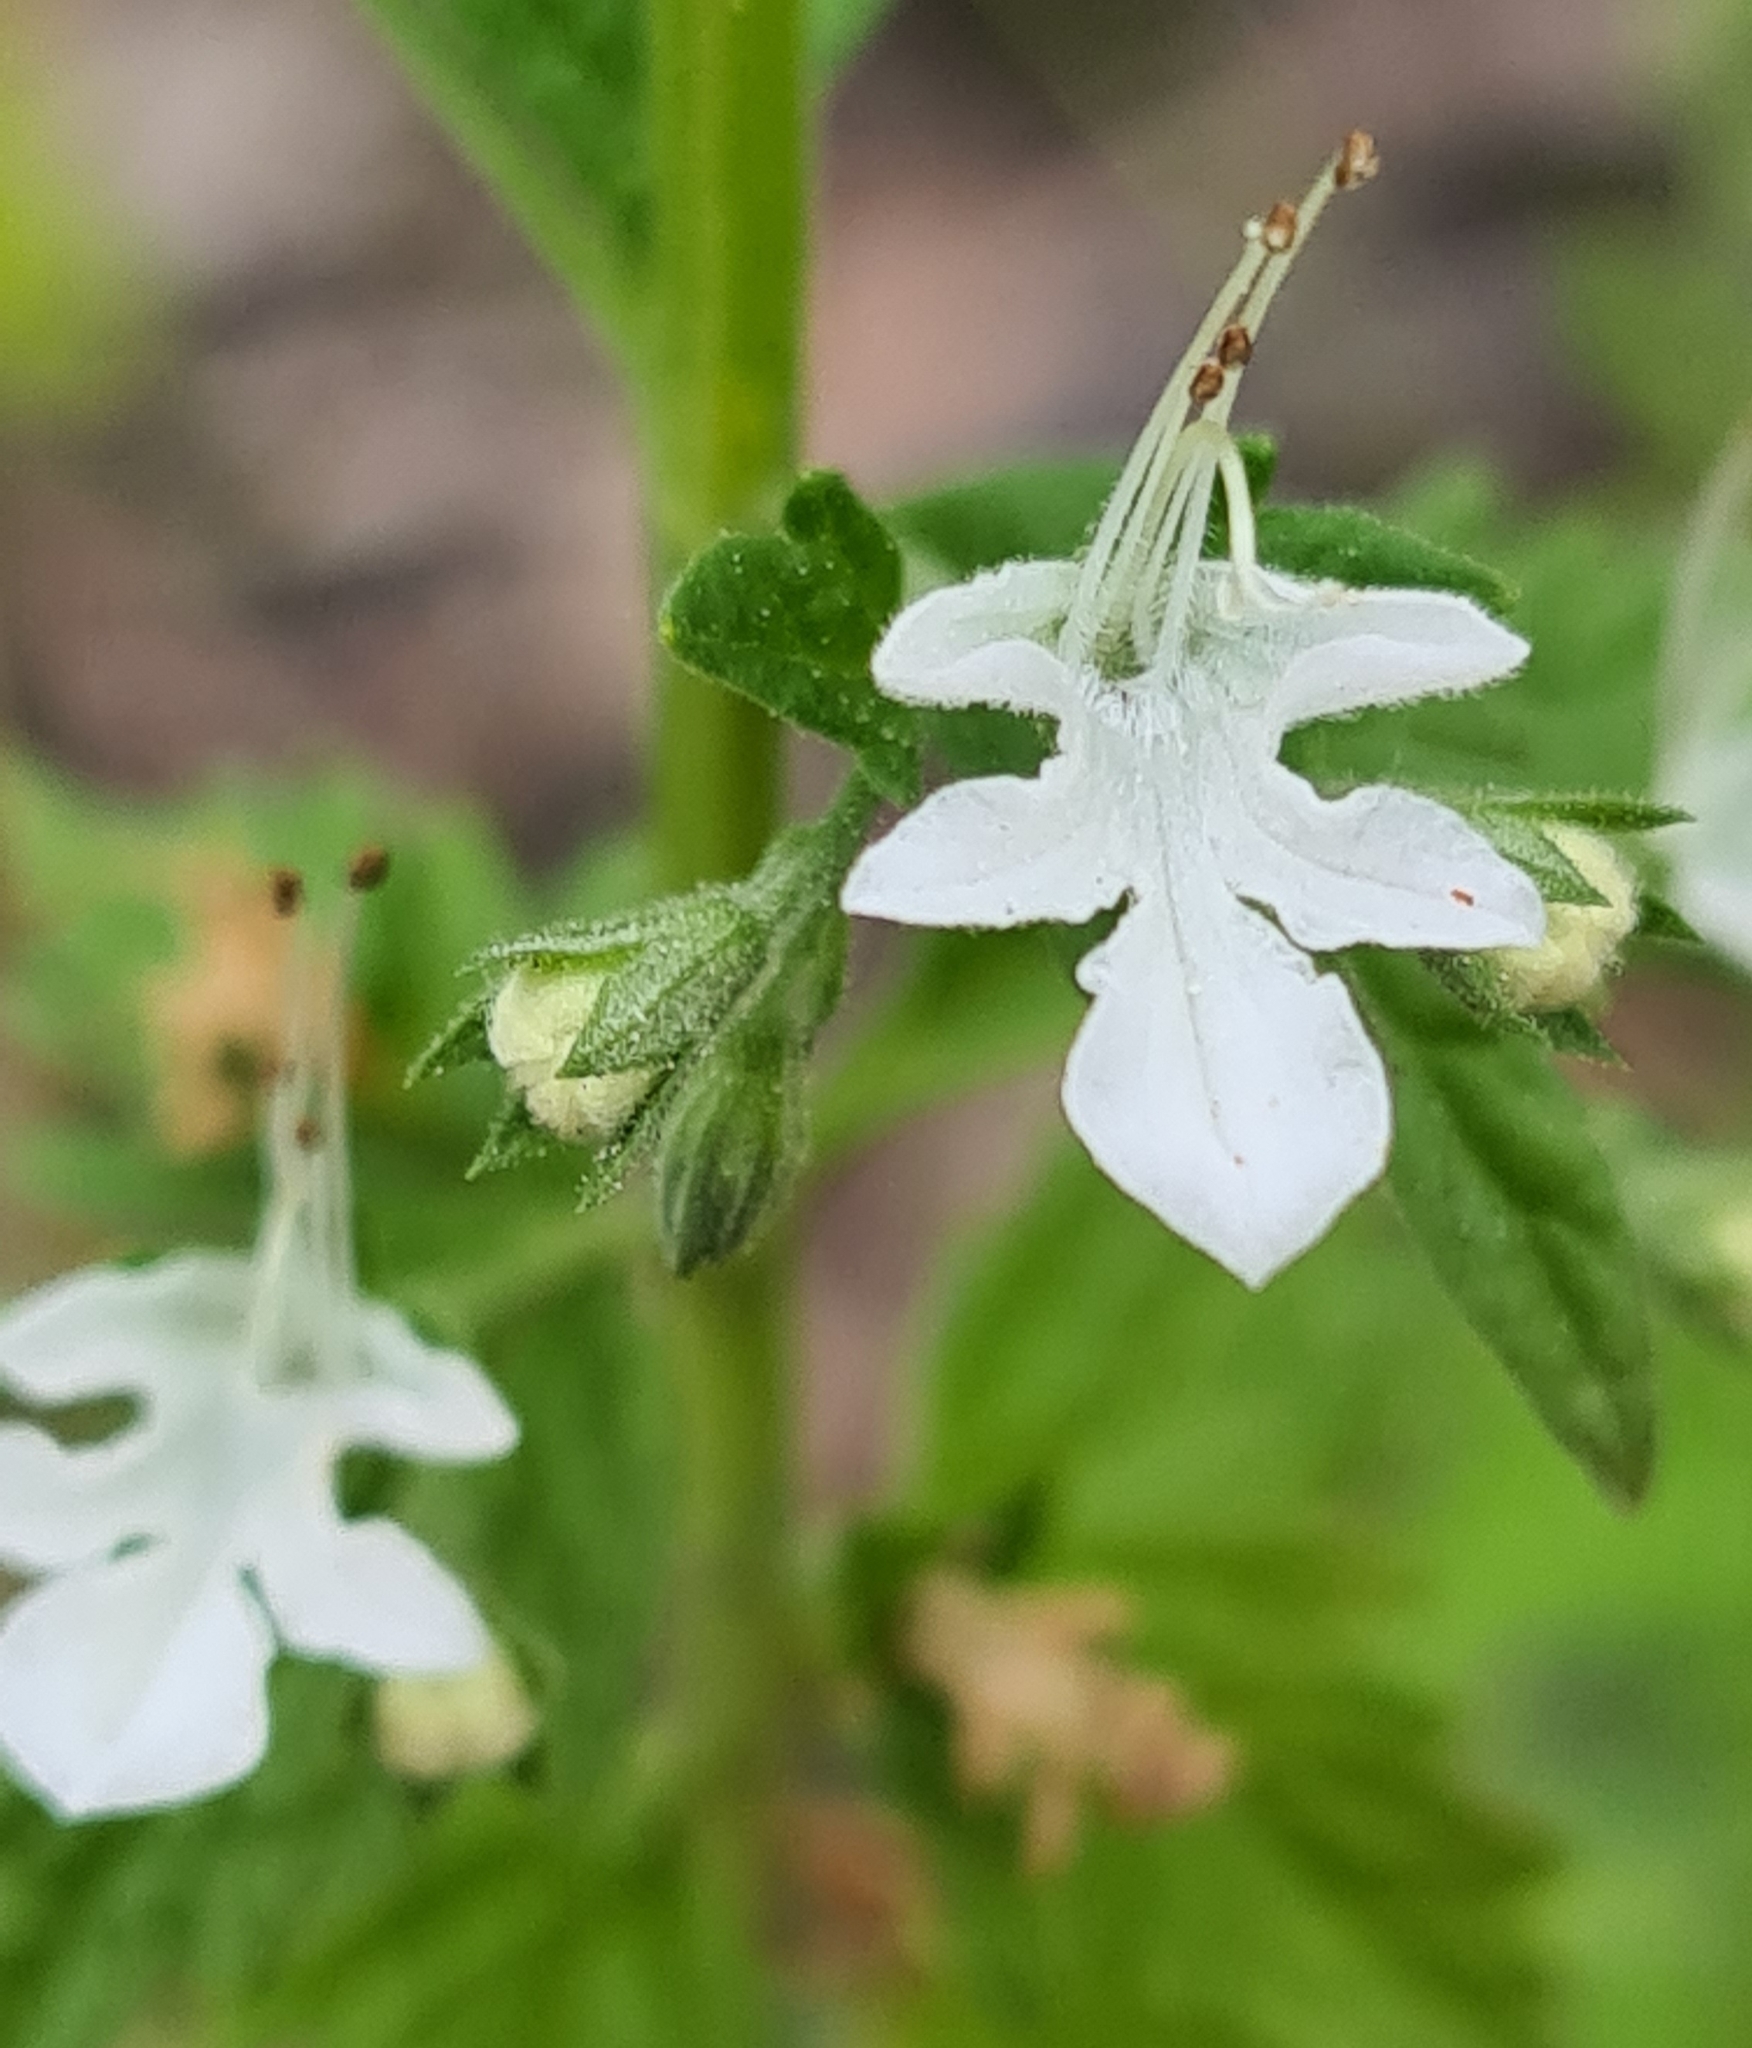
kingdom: Plantae
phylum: Tracheophyta
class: Magnoliopsida
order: Lamiales
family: Lamiaceae
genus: Teucrium
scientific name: Teucrium corymbosum
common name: Forest germander
